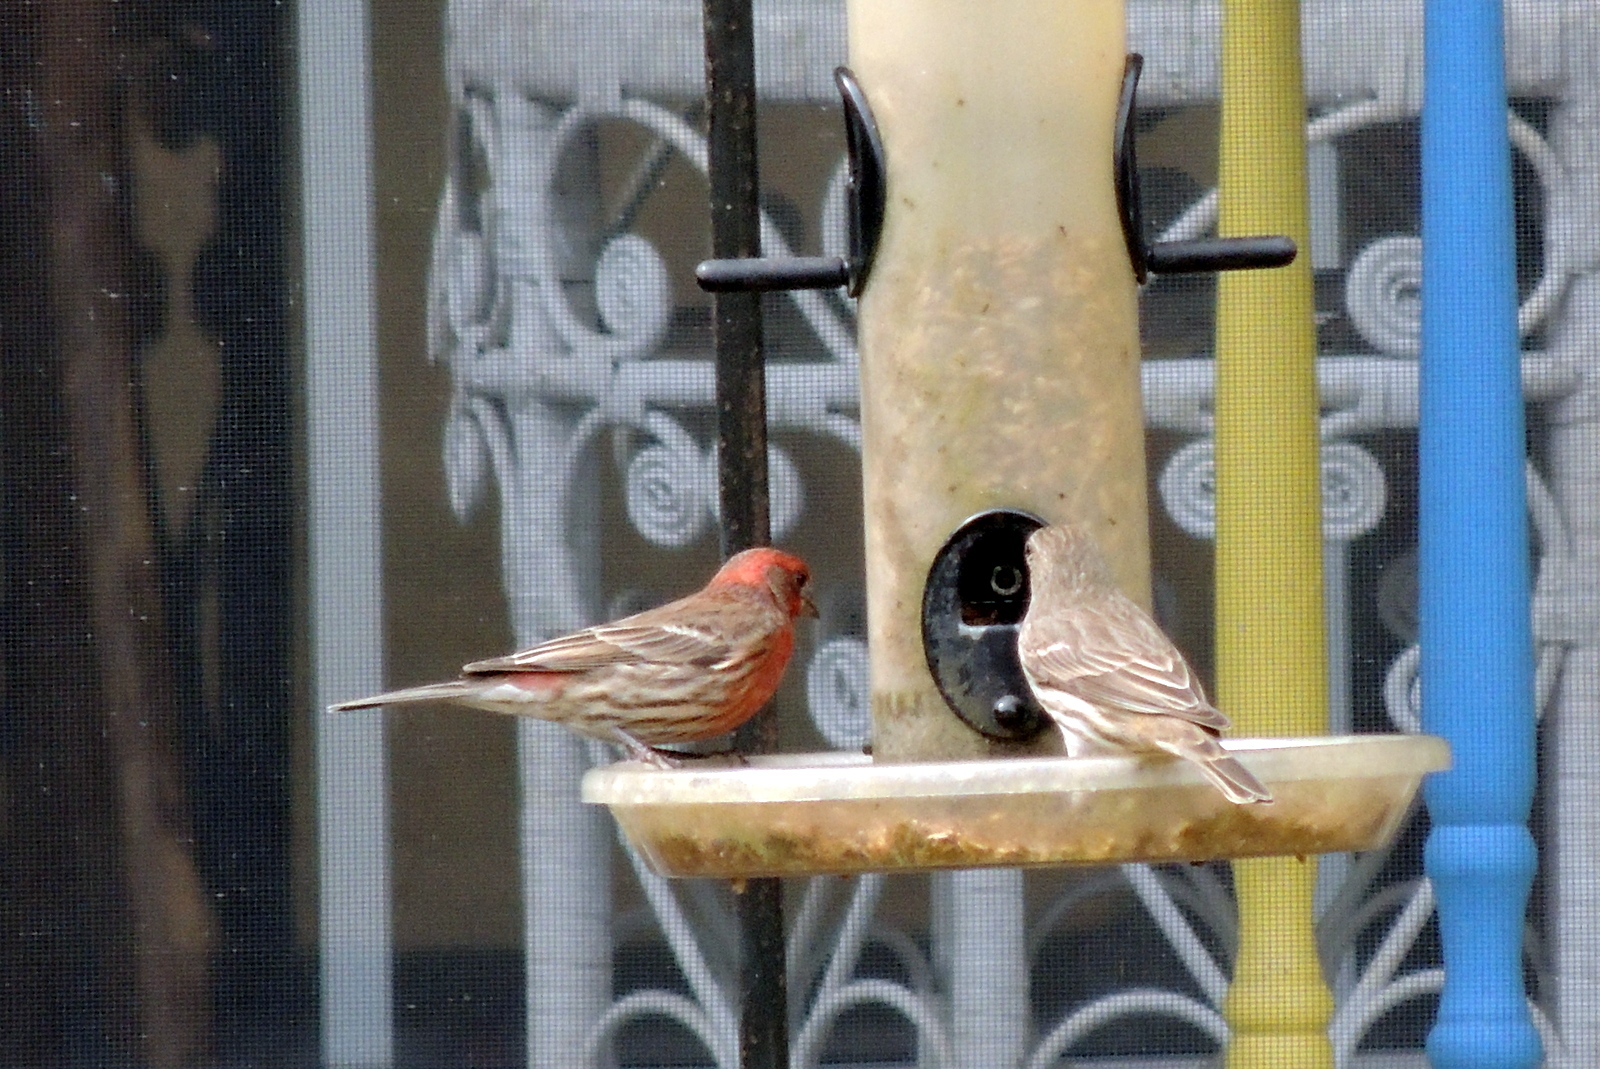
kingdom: Animalia
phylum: Chordata
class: Aves
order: Passeriformes
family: Fringillidae
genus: Haemorhous
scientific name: Haemorhous mexicanus
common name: House finch
